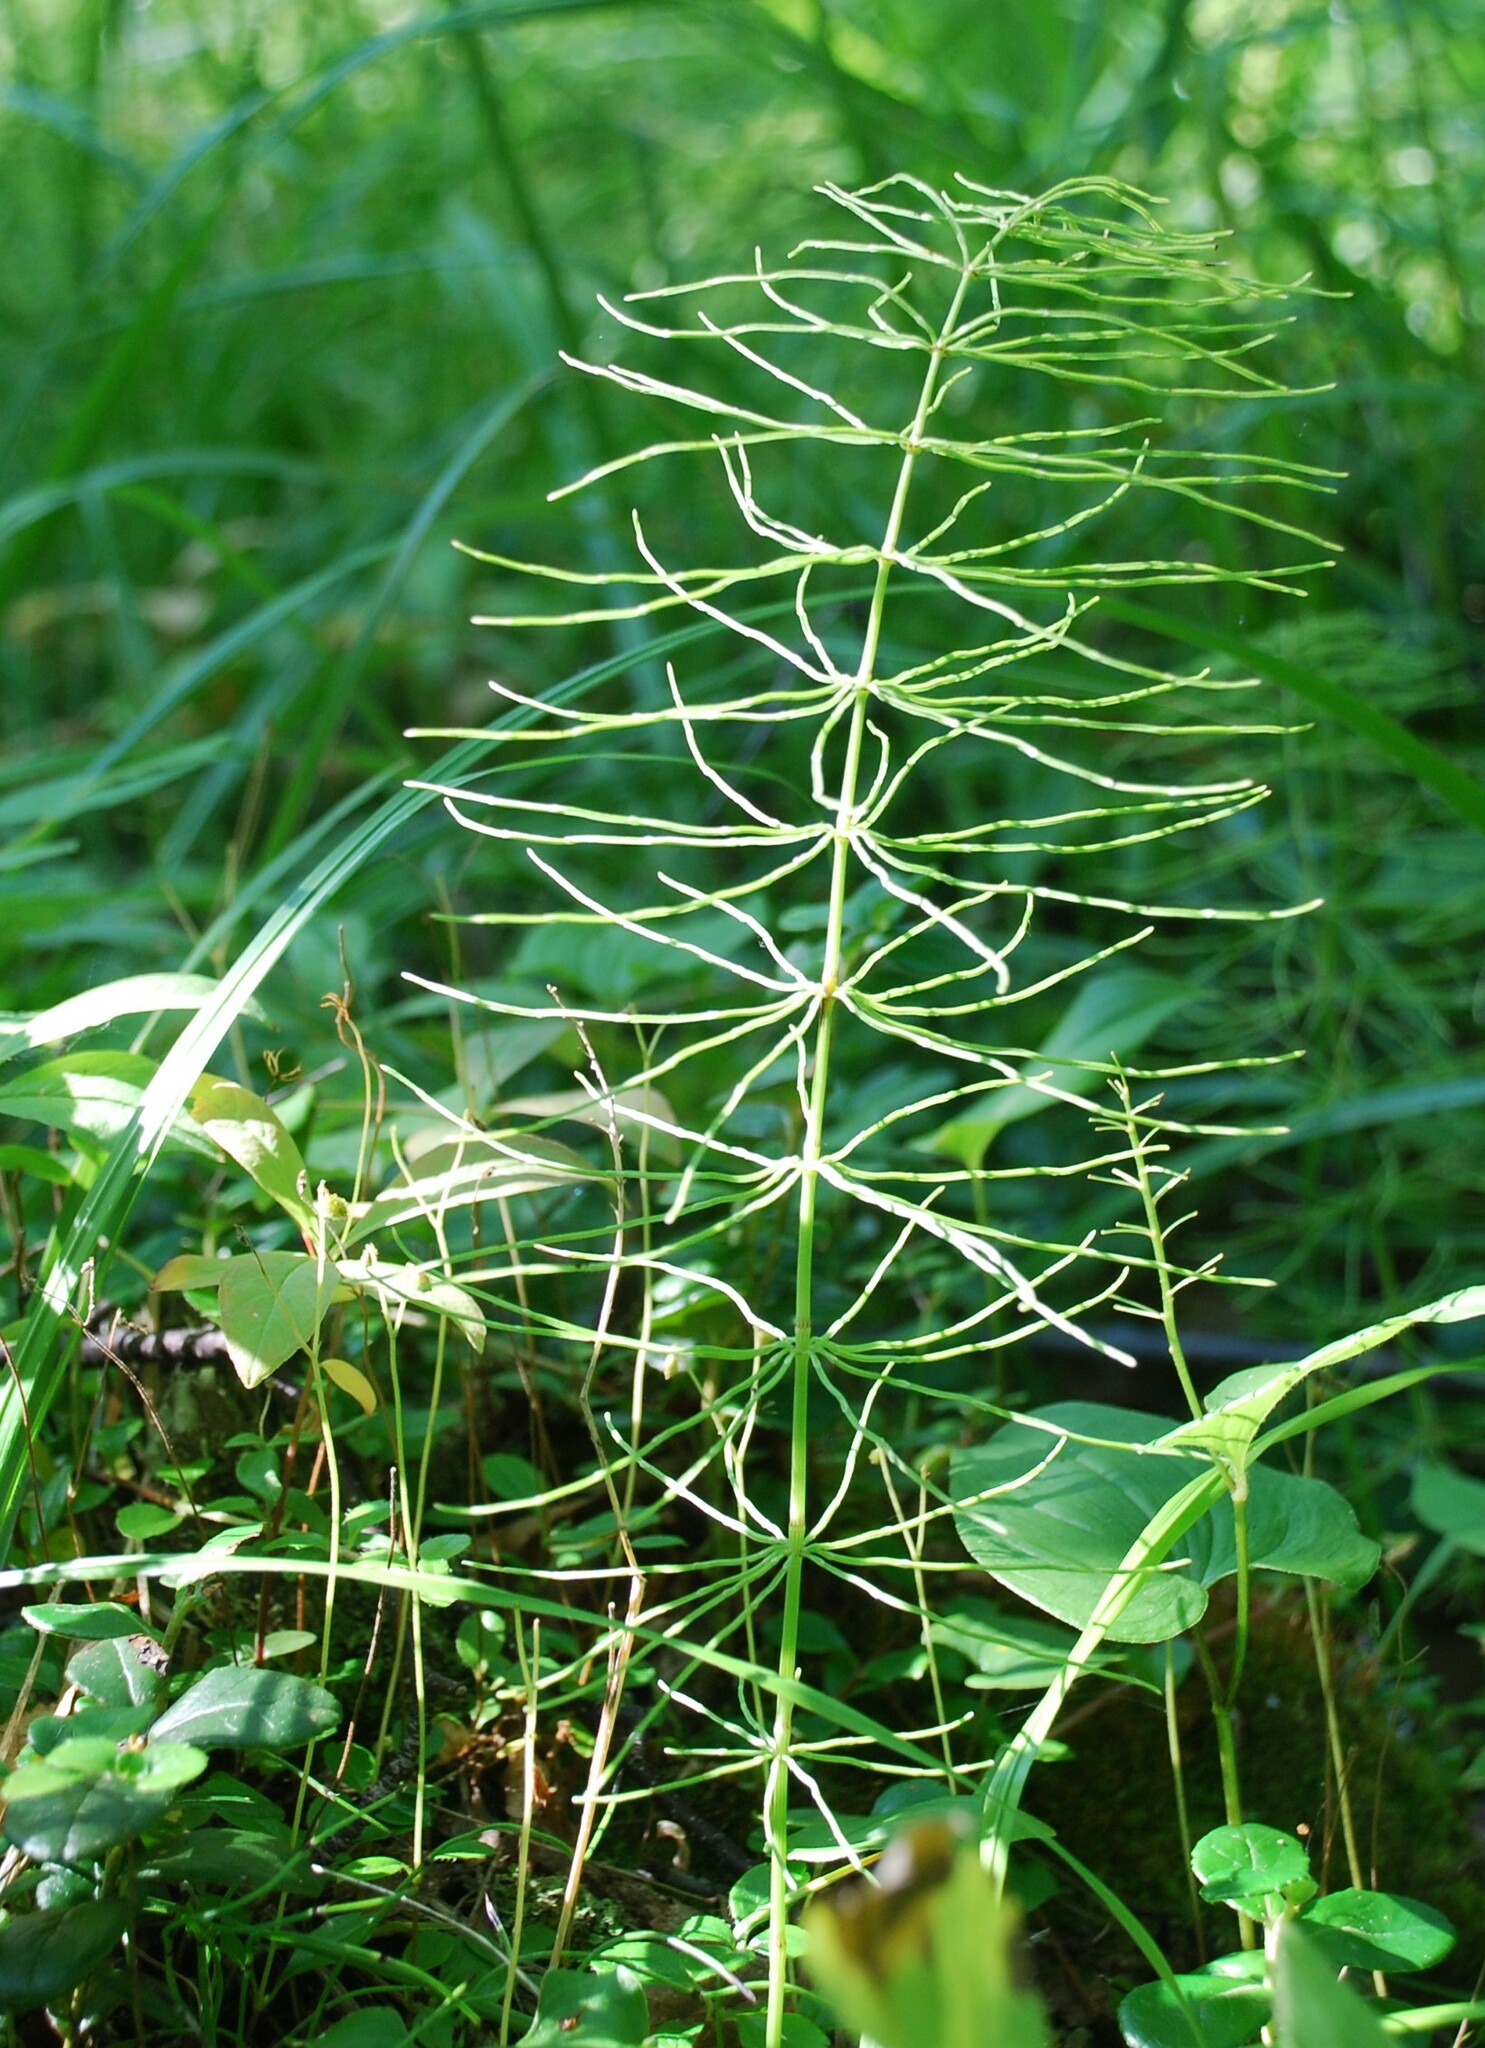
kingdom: Plantae
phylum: Tracheophyta
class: Polypodiopsida
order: Equisetales
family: Equisetaceae
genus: Equisetum
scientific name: Equisetum pratense
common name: Meadow horsetail
